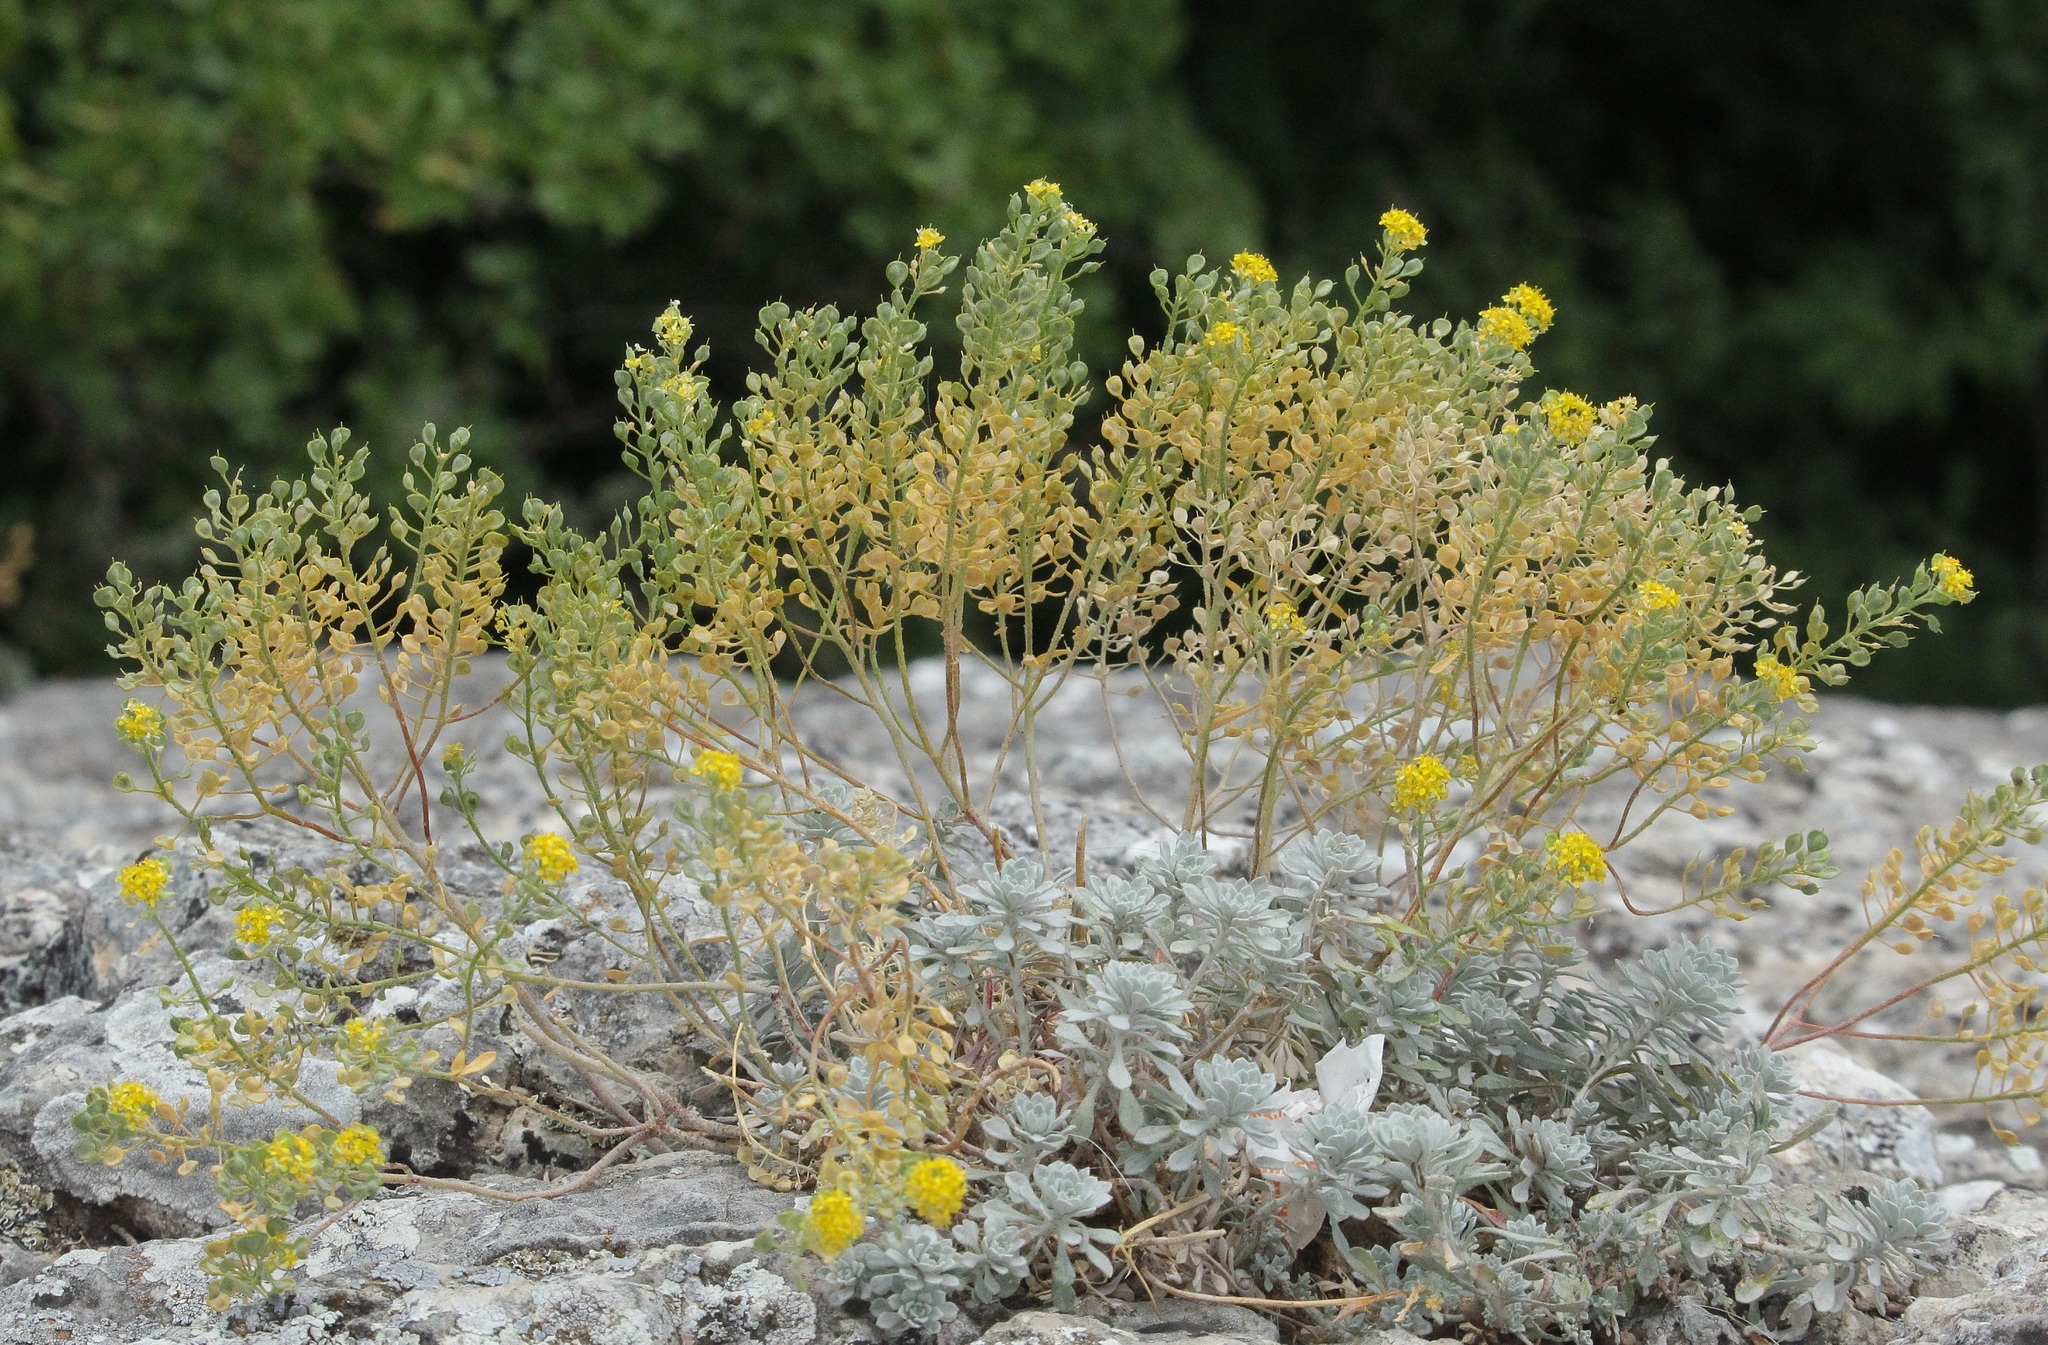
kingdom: Plantae
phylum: Tracheophyta
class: Magnoliopsida
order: Brassicales
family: Brassicaceae
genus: Odontarrhena
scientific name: Odontarrhena tortuosa
